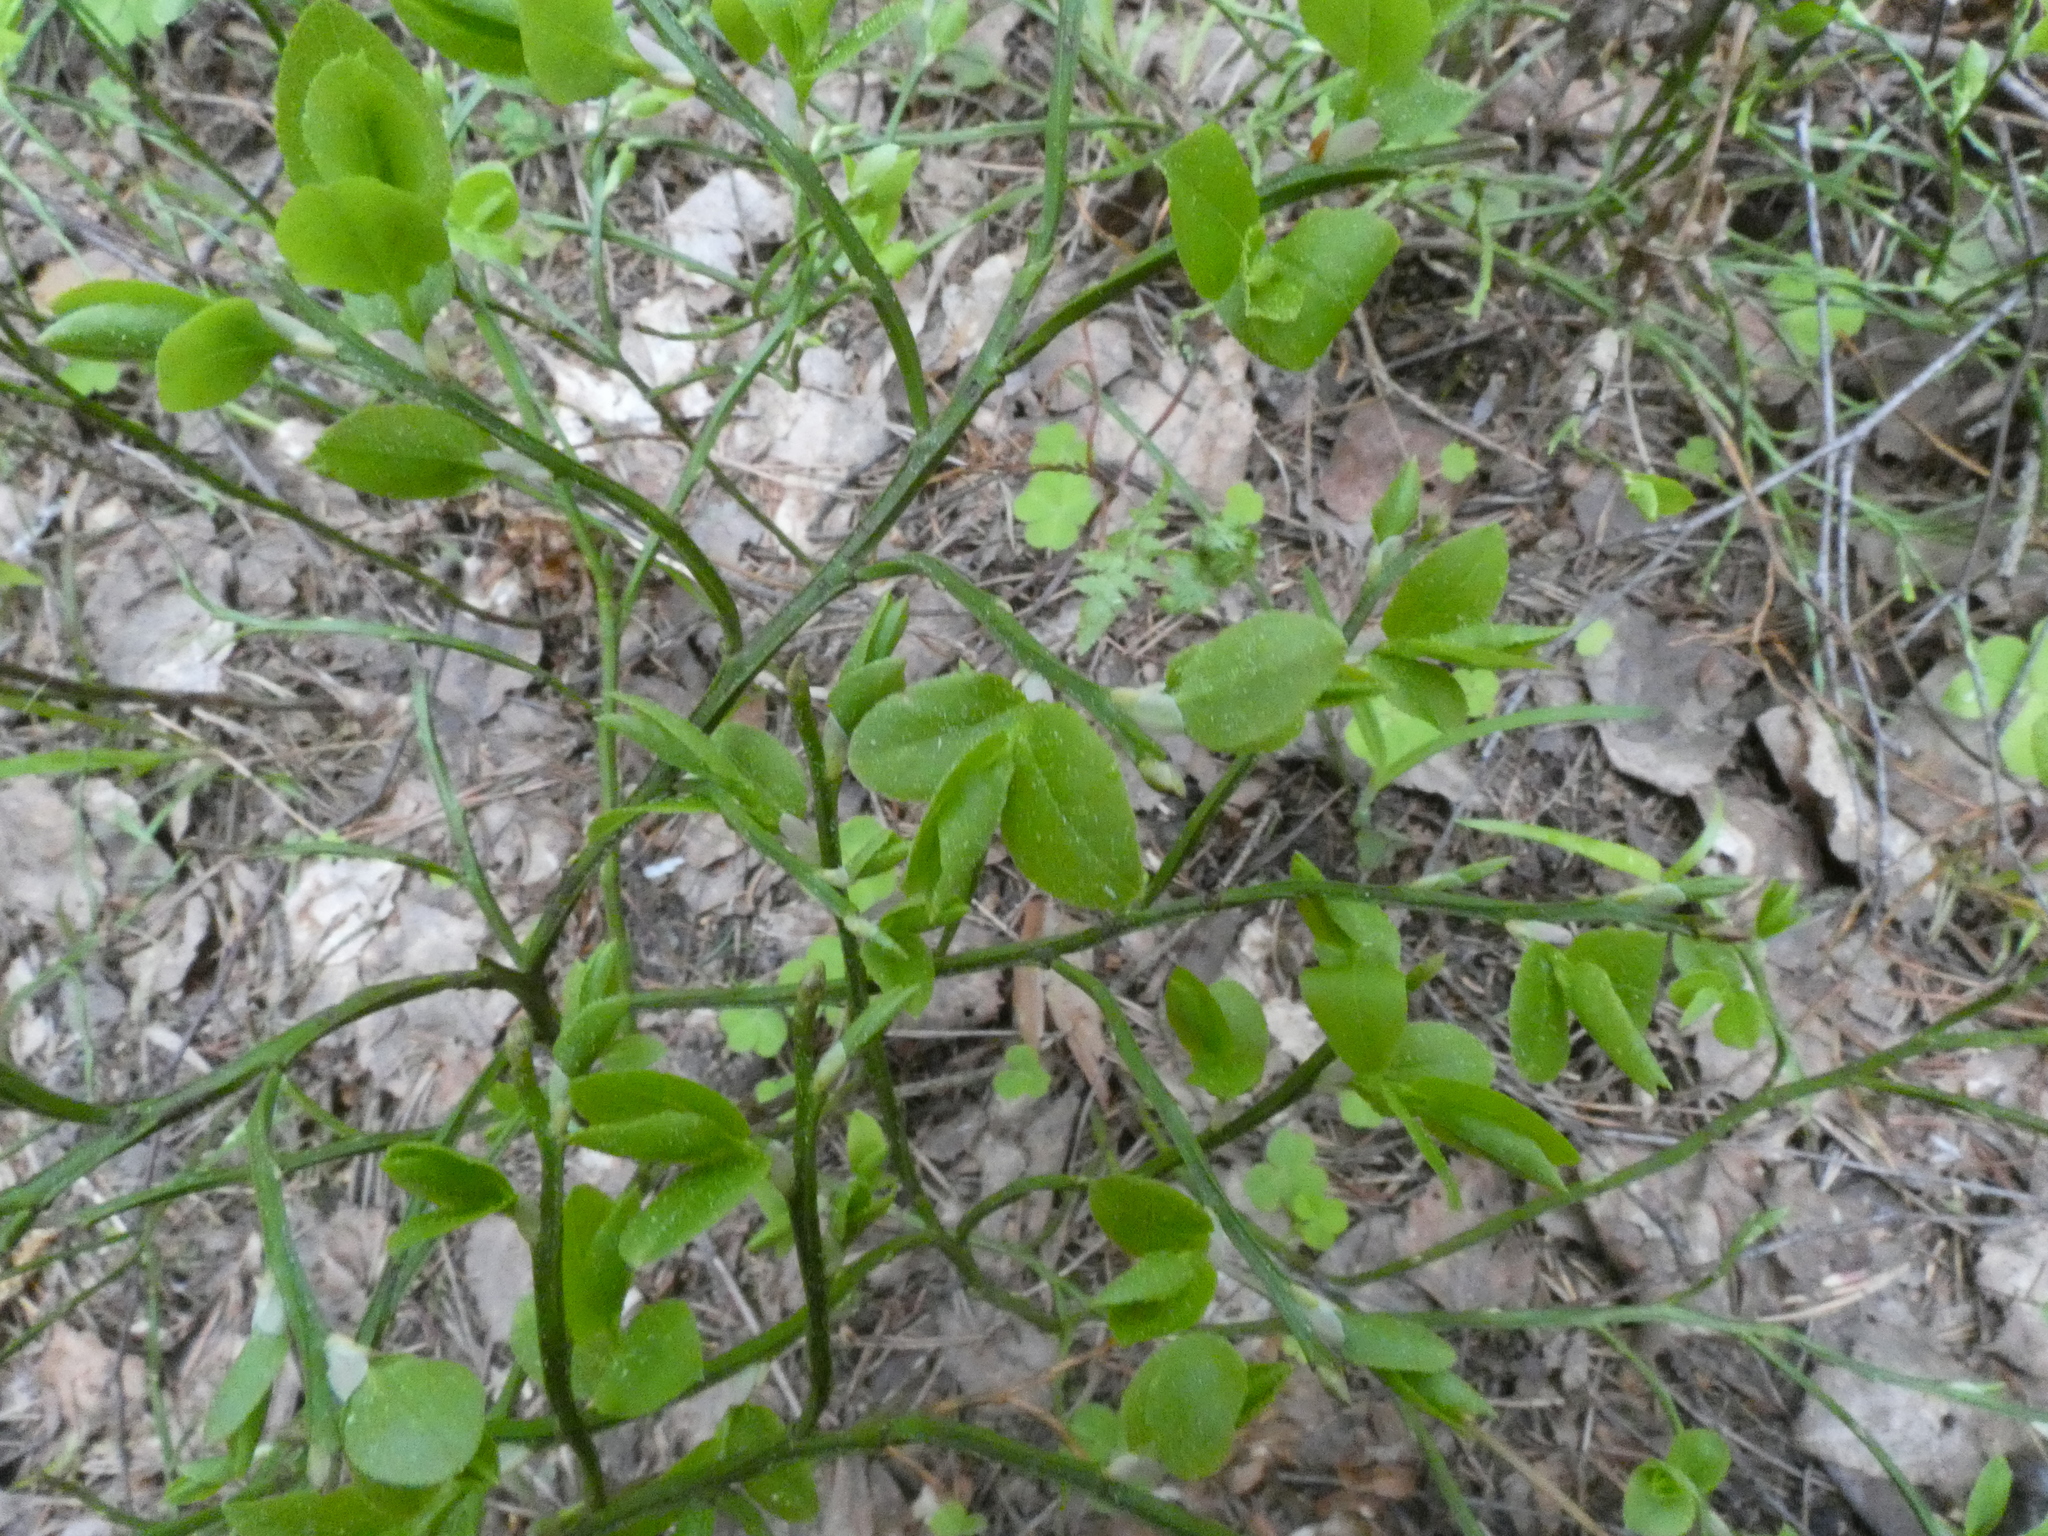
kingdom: Plantae
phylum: Tracheophyta
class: Magnoliopsida
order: Ericales
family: Ericaceae
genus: Vaccinium
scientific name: Vaccinium myrtillus
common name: Bilberry
